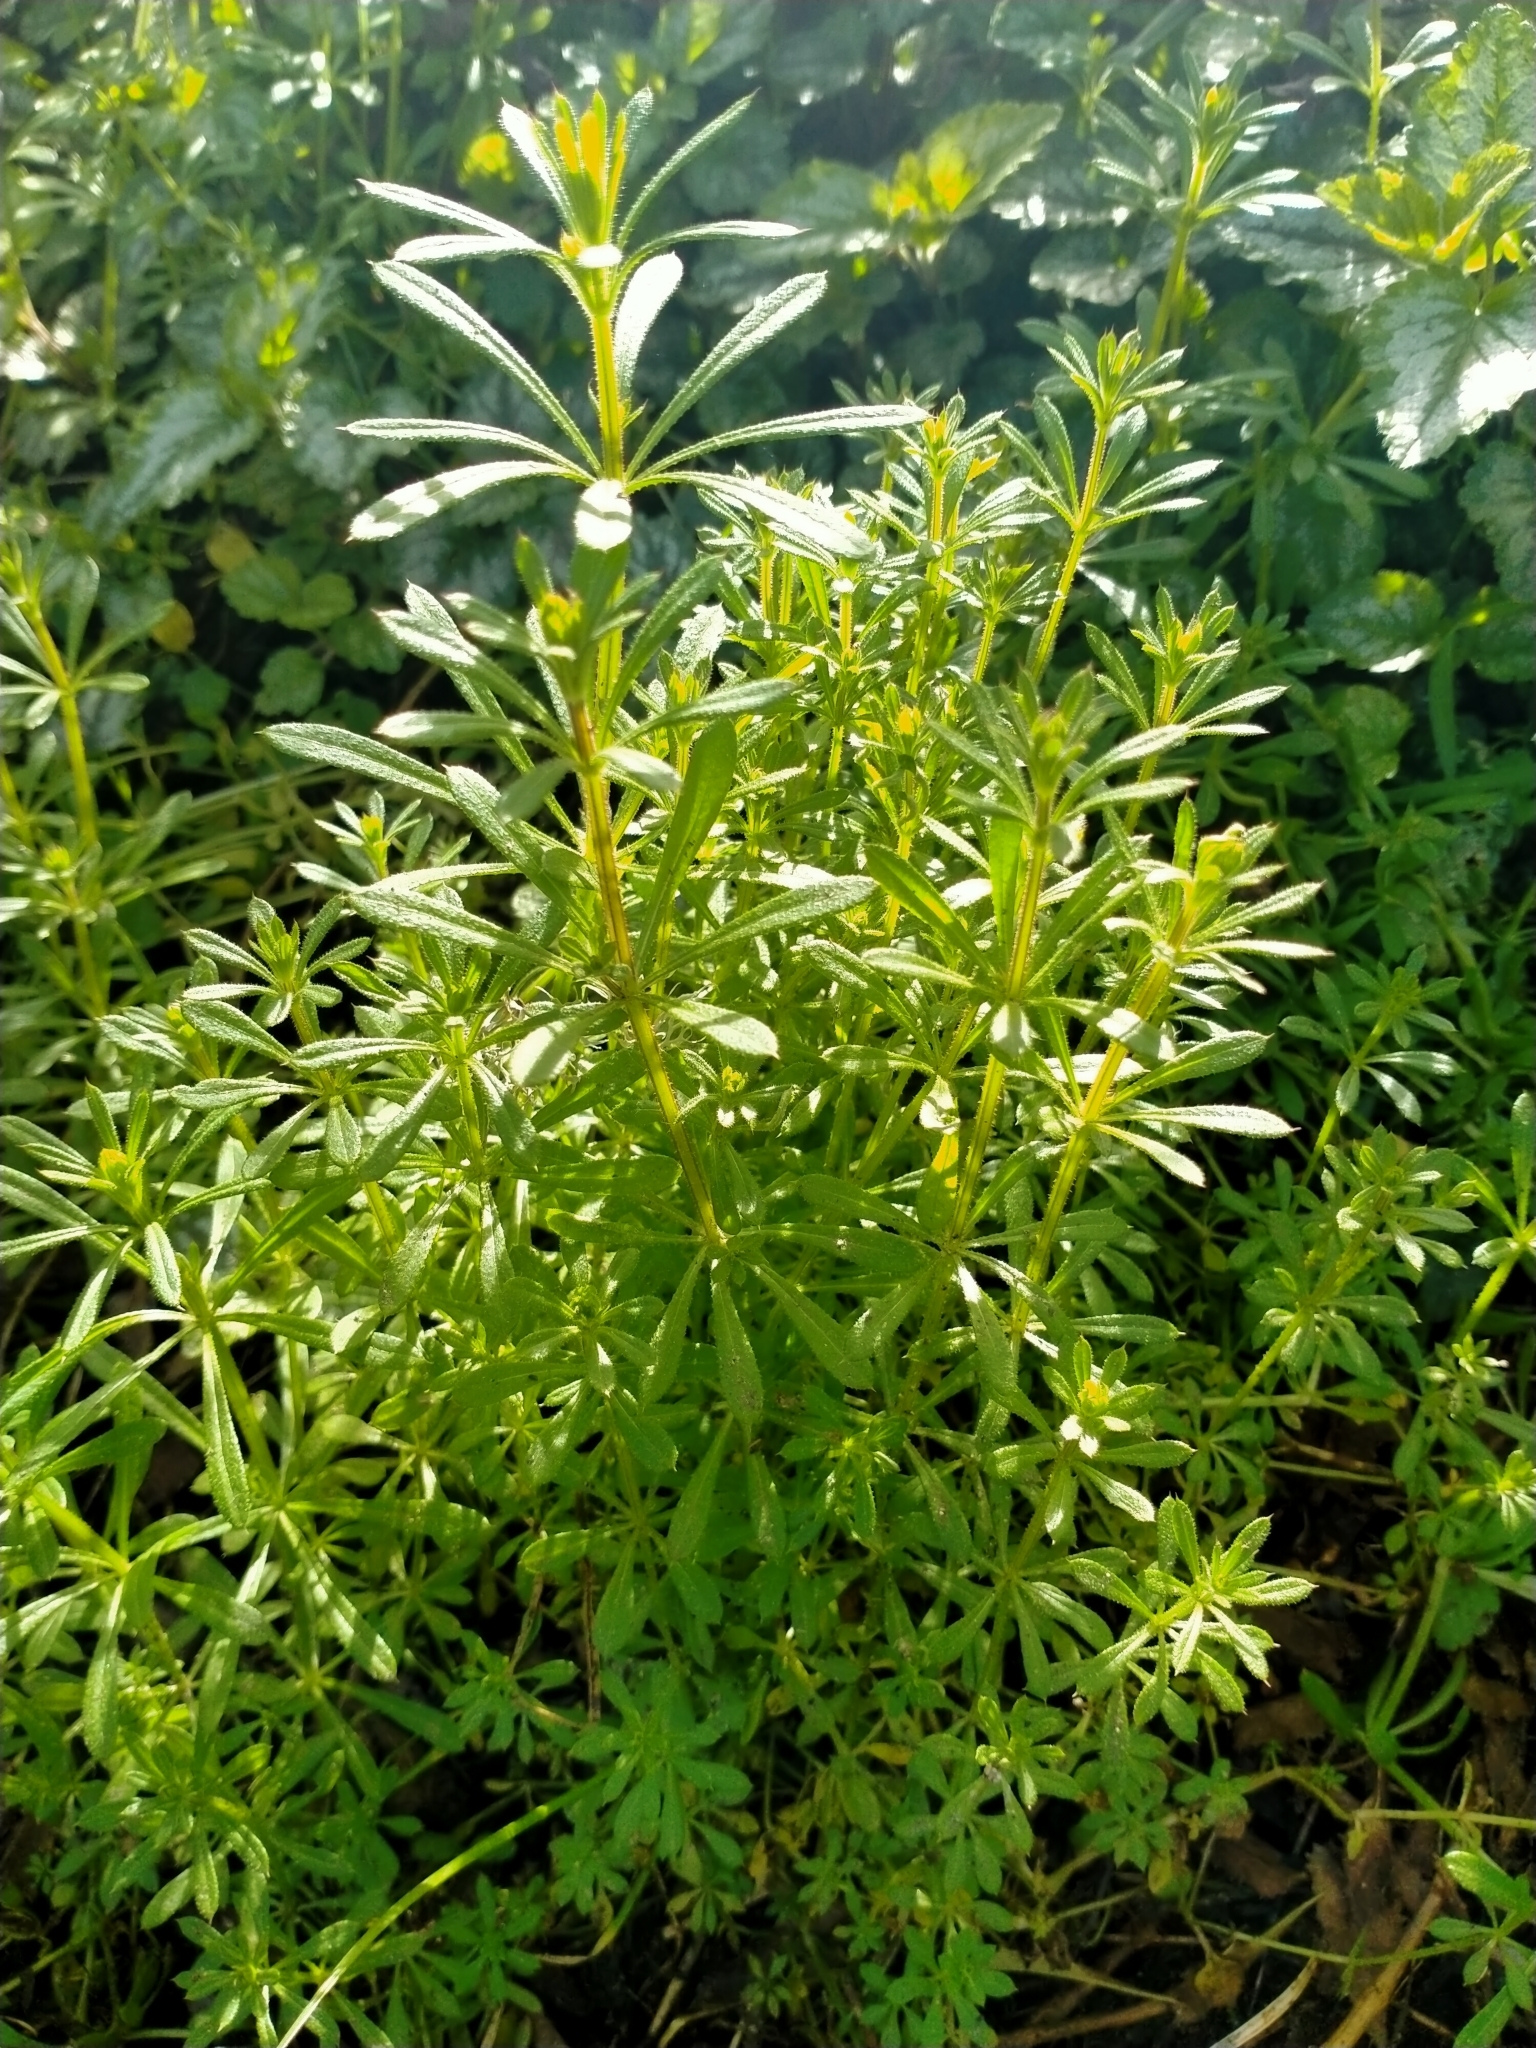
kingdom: Plantae
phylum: Tracheophyta
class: Magnoliopsida
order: Gentianales
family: Rubiaceae
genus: Galium
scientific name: Galium aparine
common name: Cleavers
